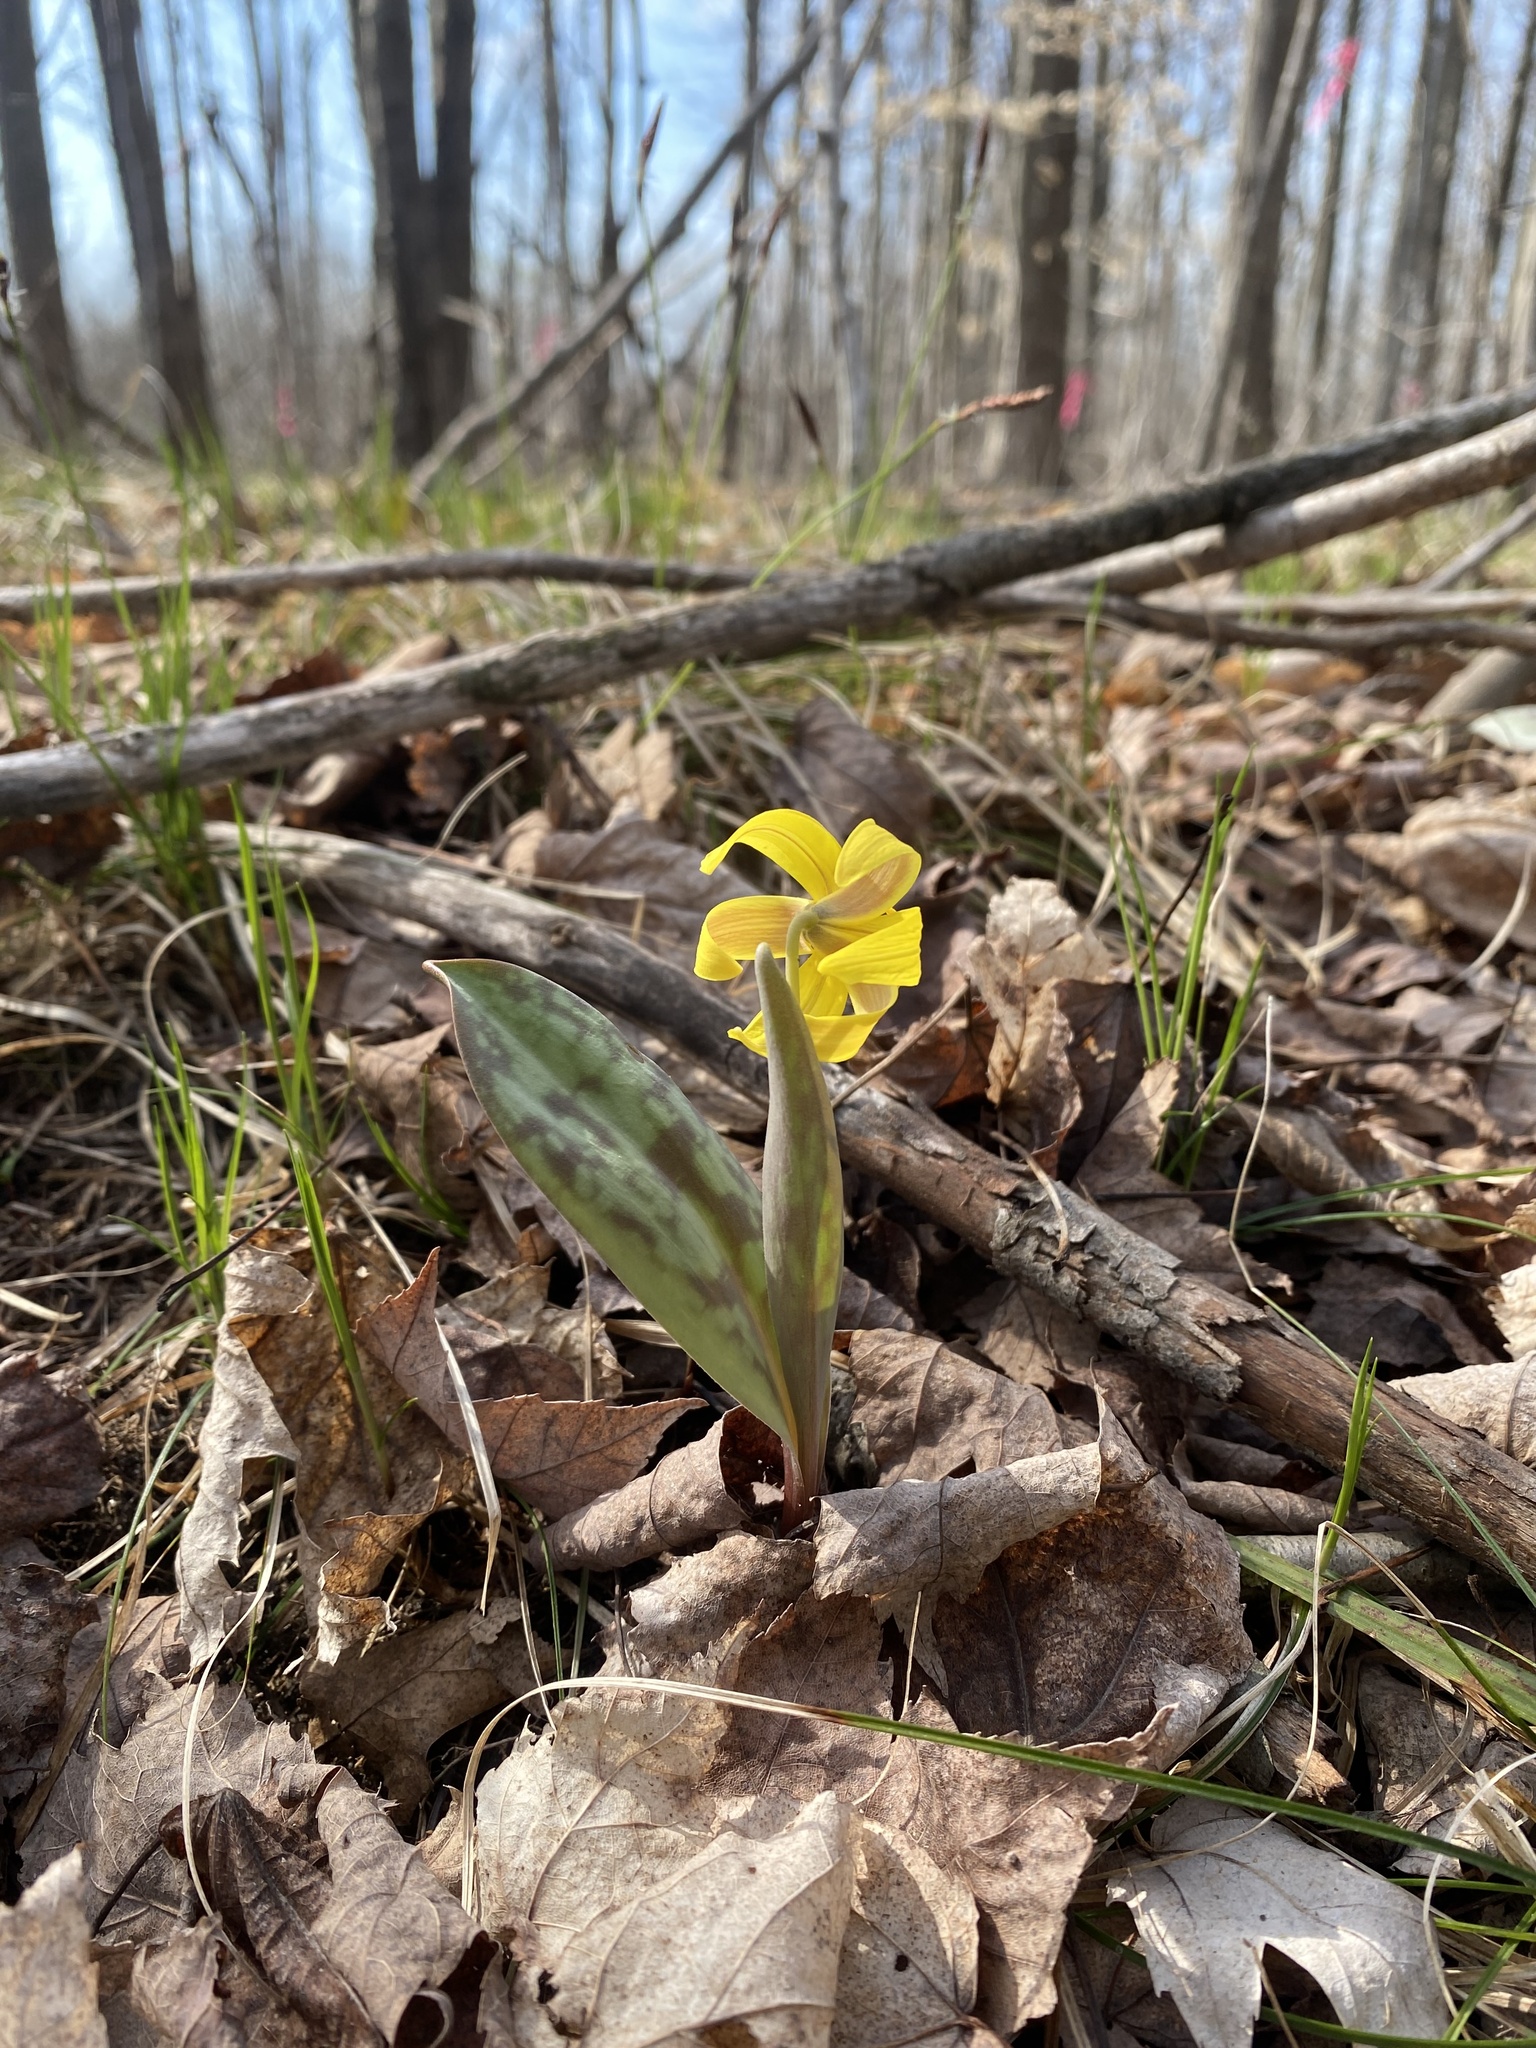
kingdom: Plantae
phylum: Tracheophyta
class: Liliopsida
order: Liliales
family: Liliaceae
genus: Erythronium
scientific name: Erythronium americanum
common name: Yellow adder's-tongue
